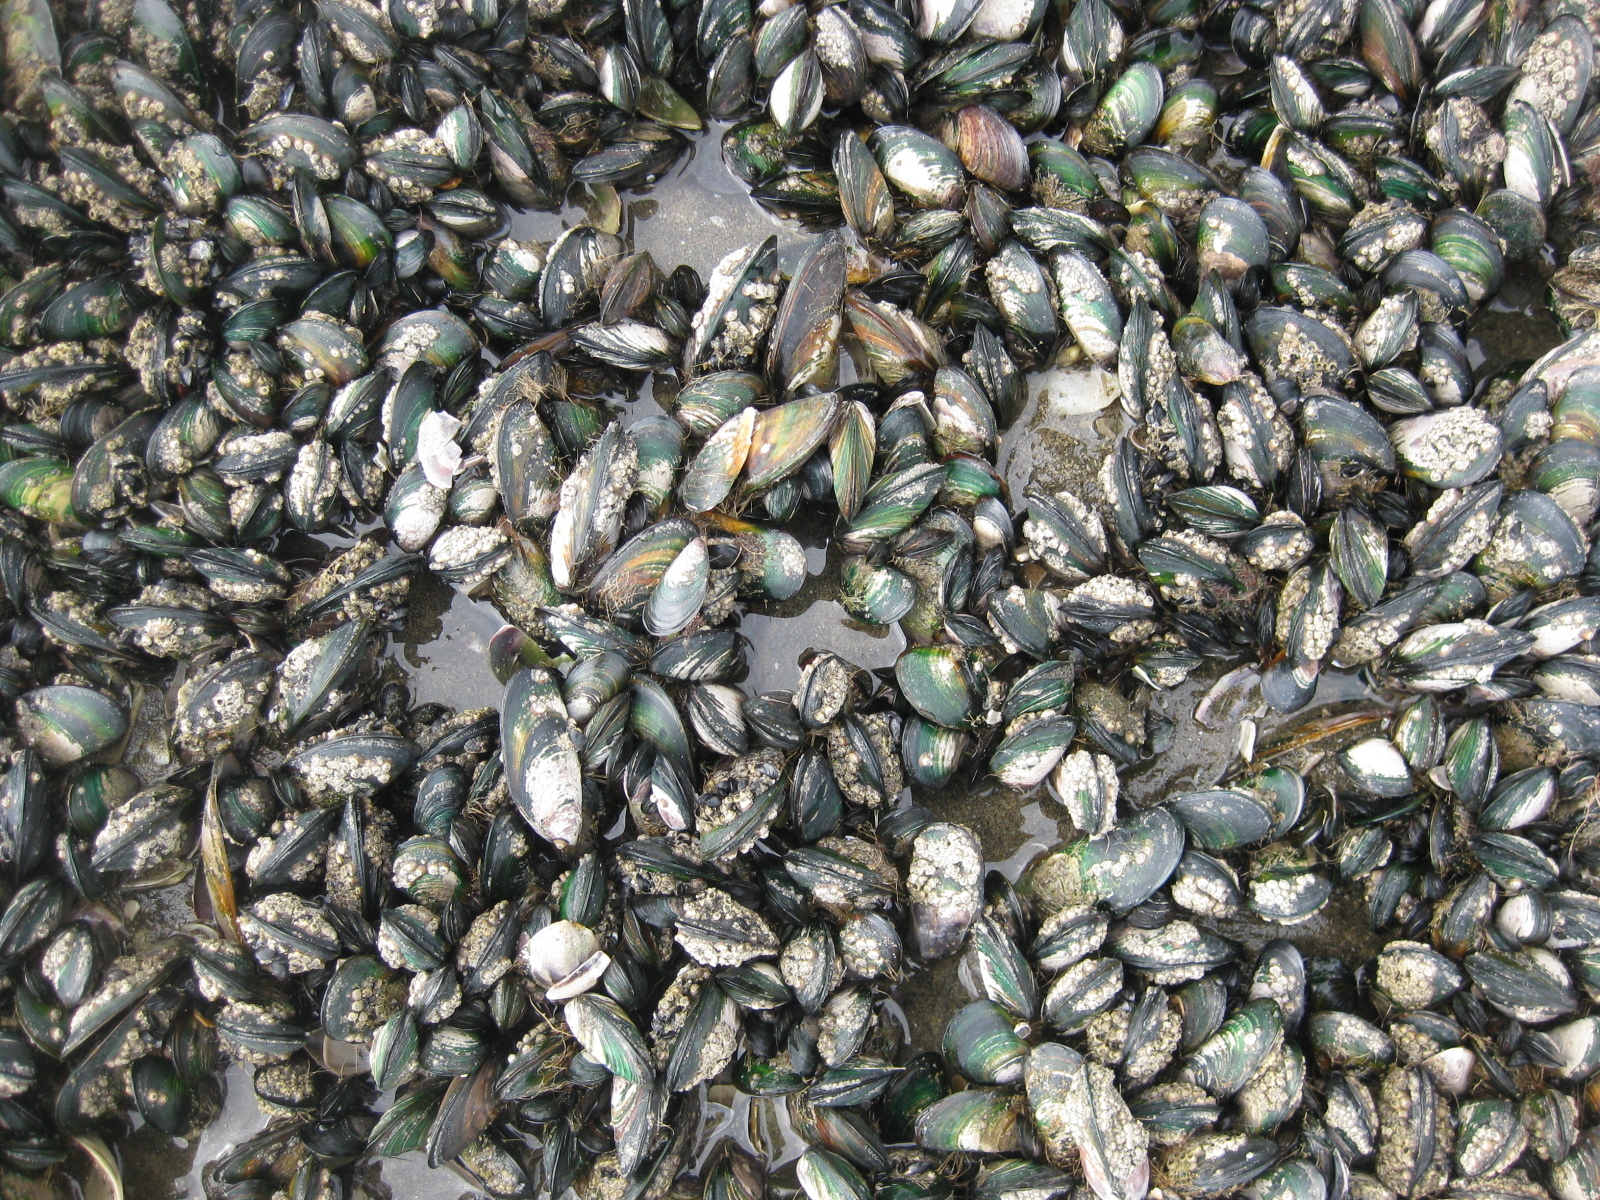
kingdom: Animalia
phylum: Mollusca
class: Bivalvia
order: Mytilida
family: Mytilidae
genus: Perna
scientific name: Perna canaliculus
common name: New zealand greenshelltm
